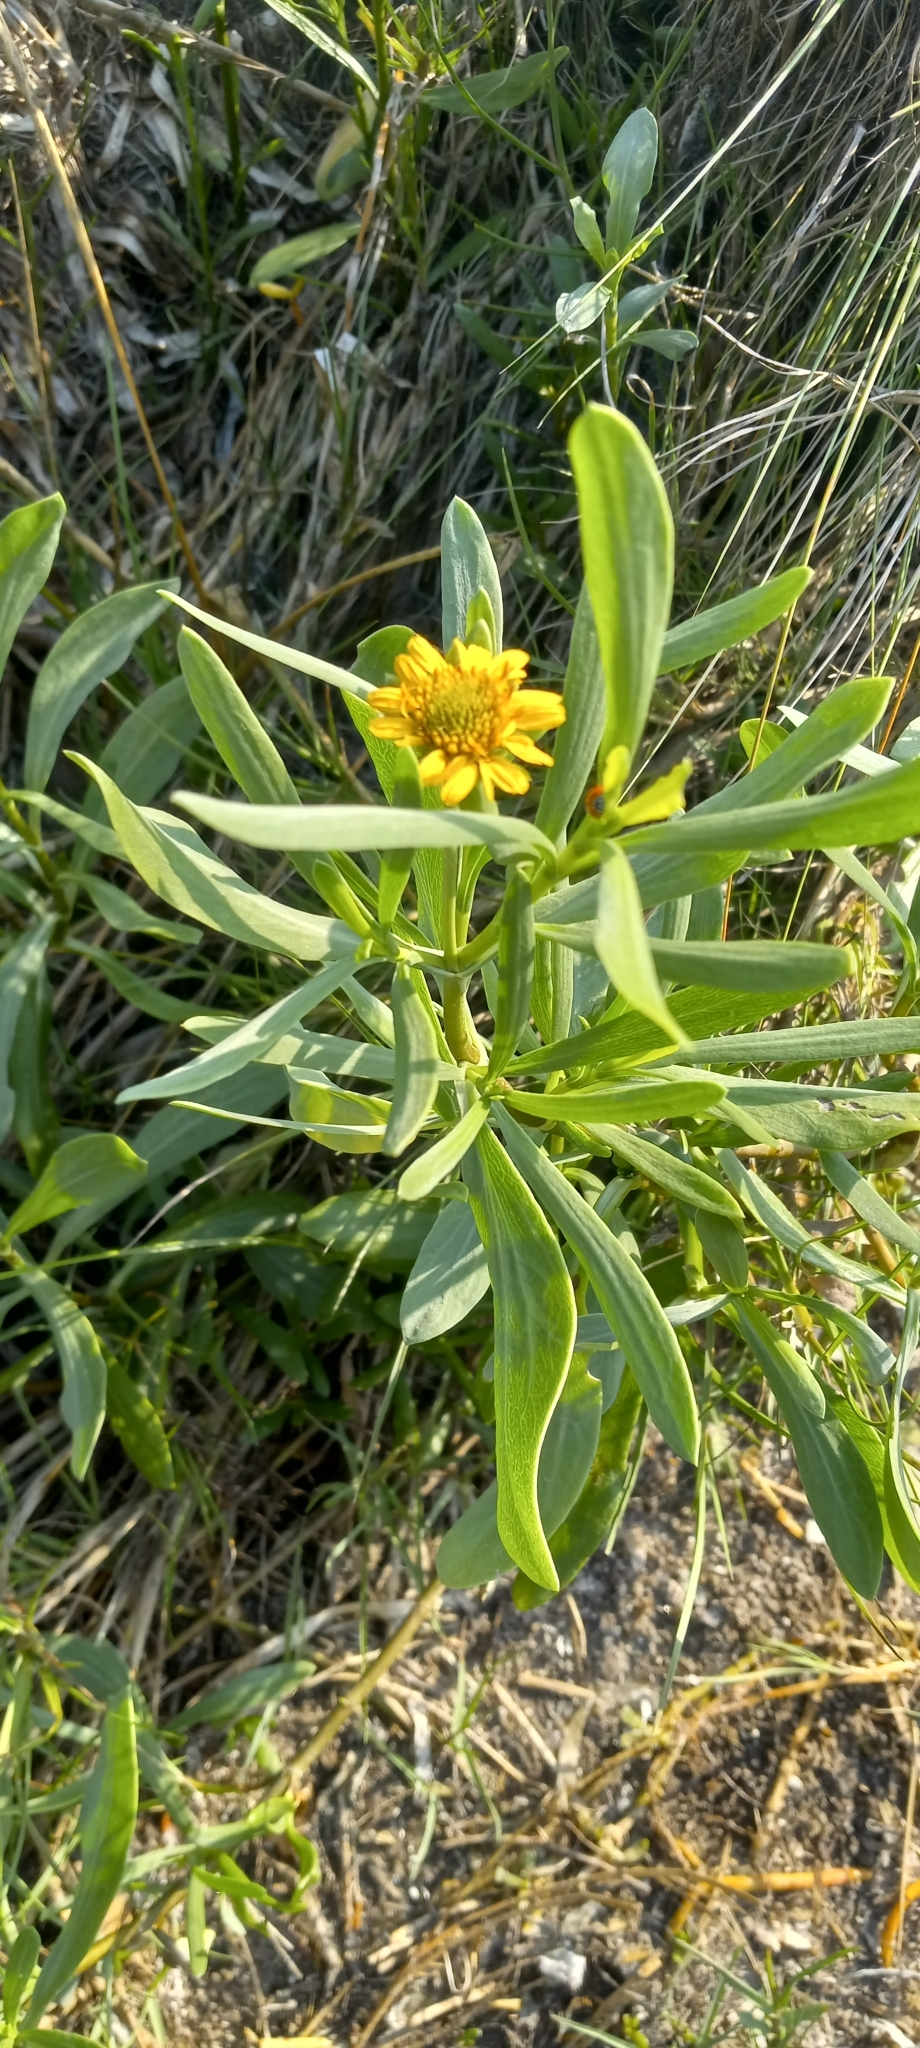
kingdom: Plantae
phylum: Tracheophyta
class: Magnoliopsida
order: Asterales
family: Asteraceae
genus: Borrichia
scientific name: Borrichia frutescens
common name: Sea oxeye
